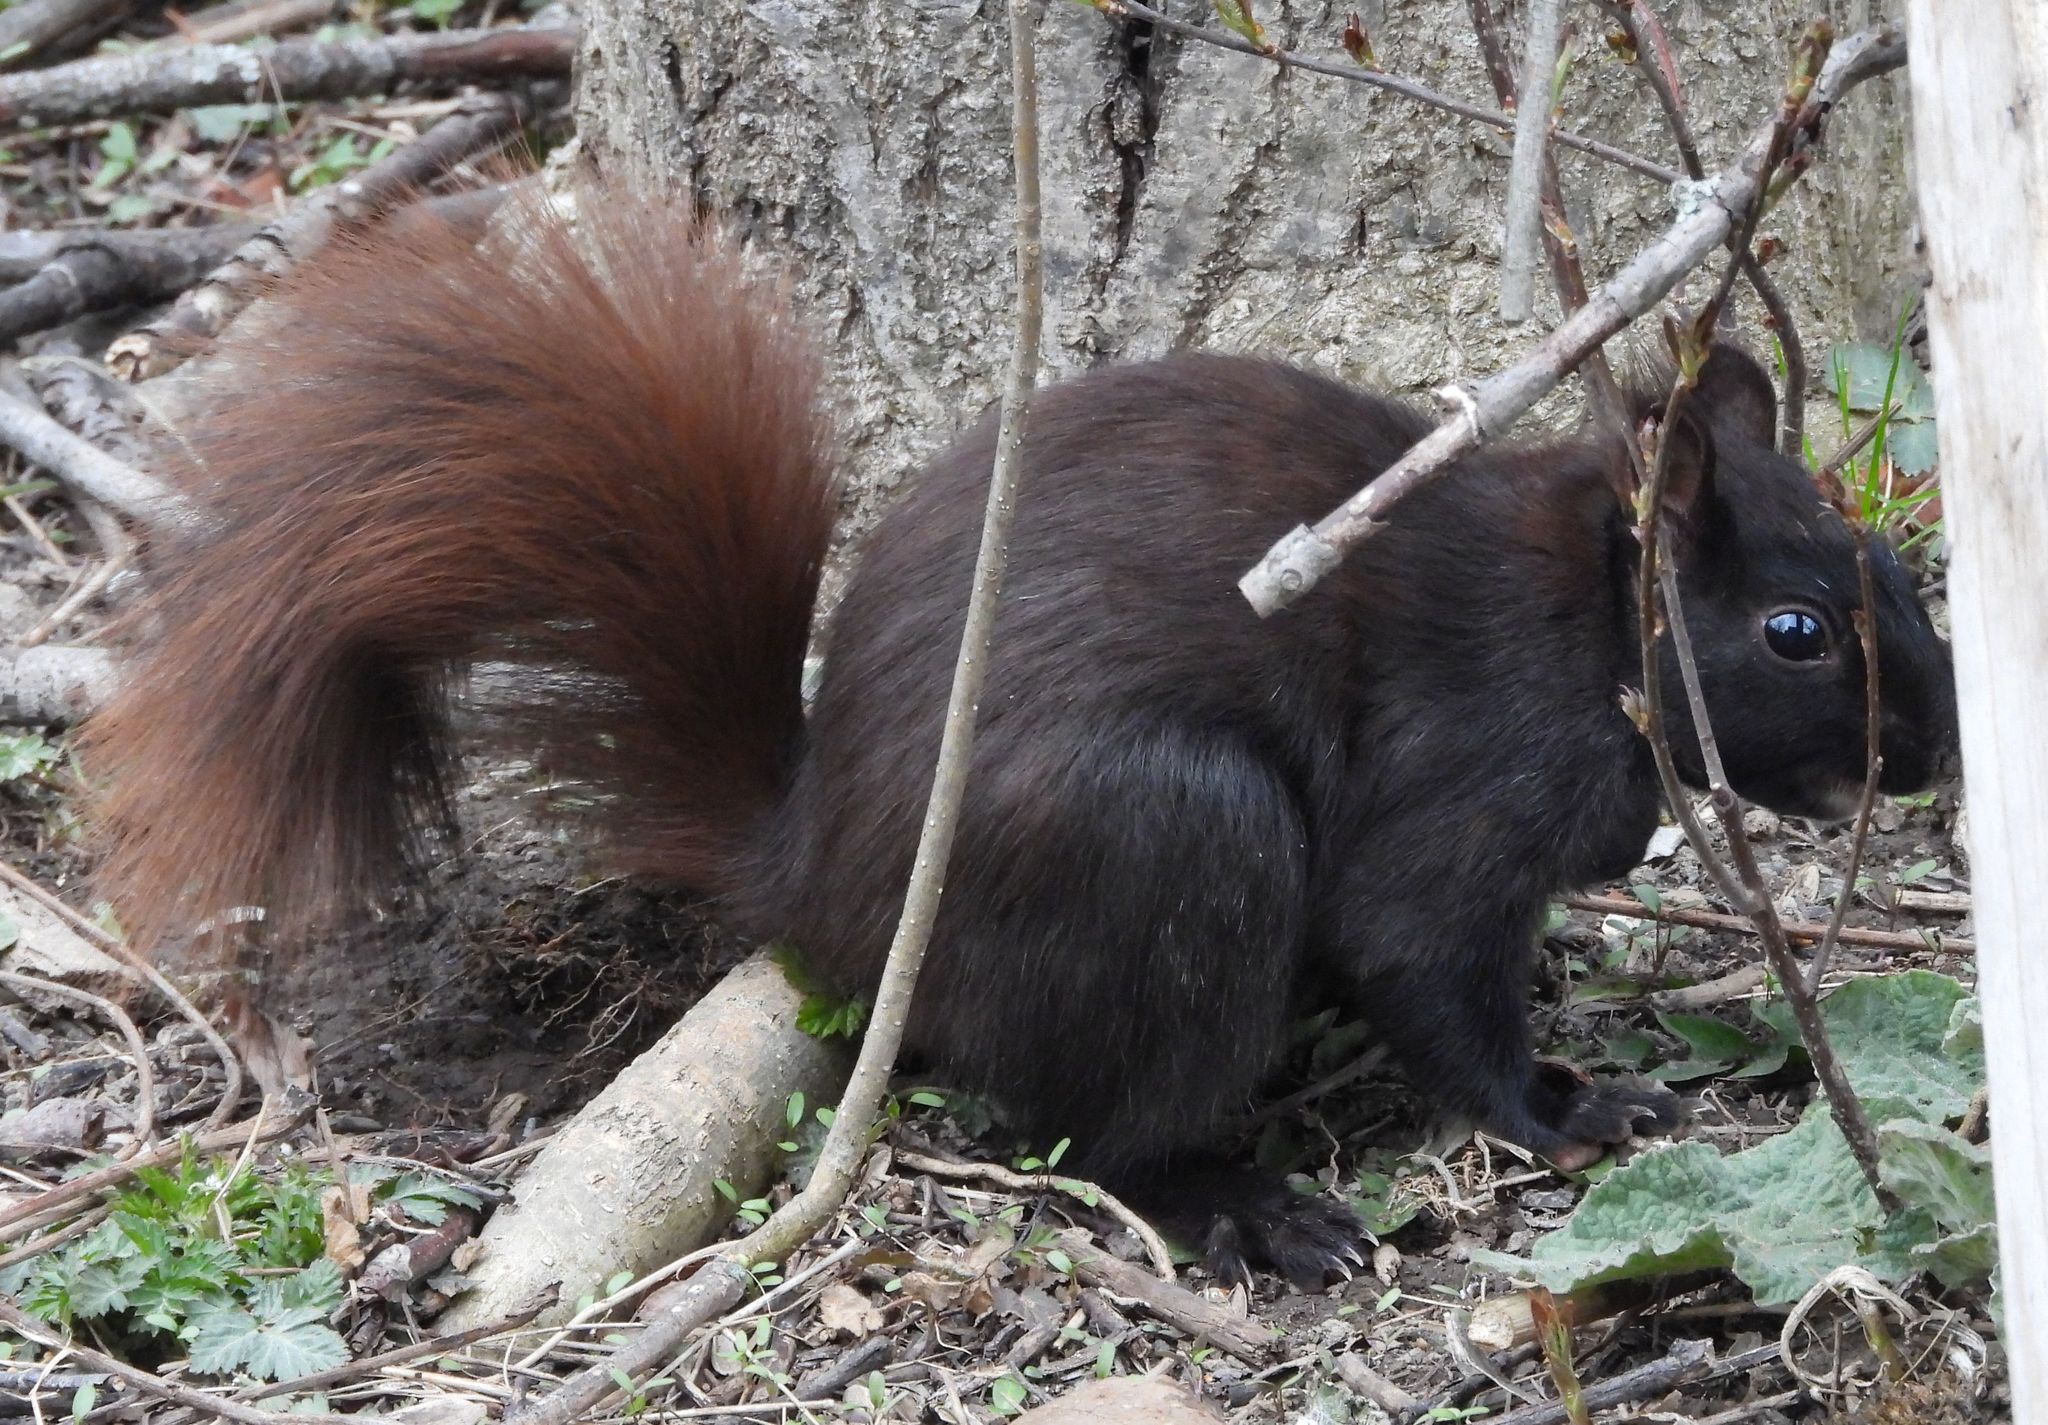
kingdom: Animalia
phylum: Chordata
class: Mammalia
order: Rodentia
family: Sciuridae
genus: Sciurus
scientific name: Sciurus carolinensis
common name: Eastern gray squirrel
